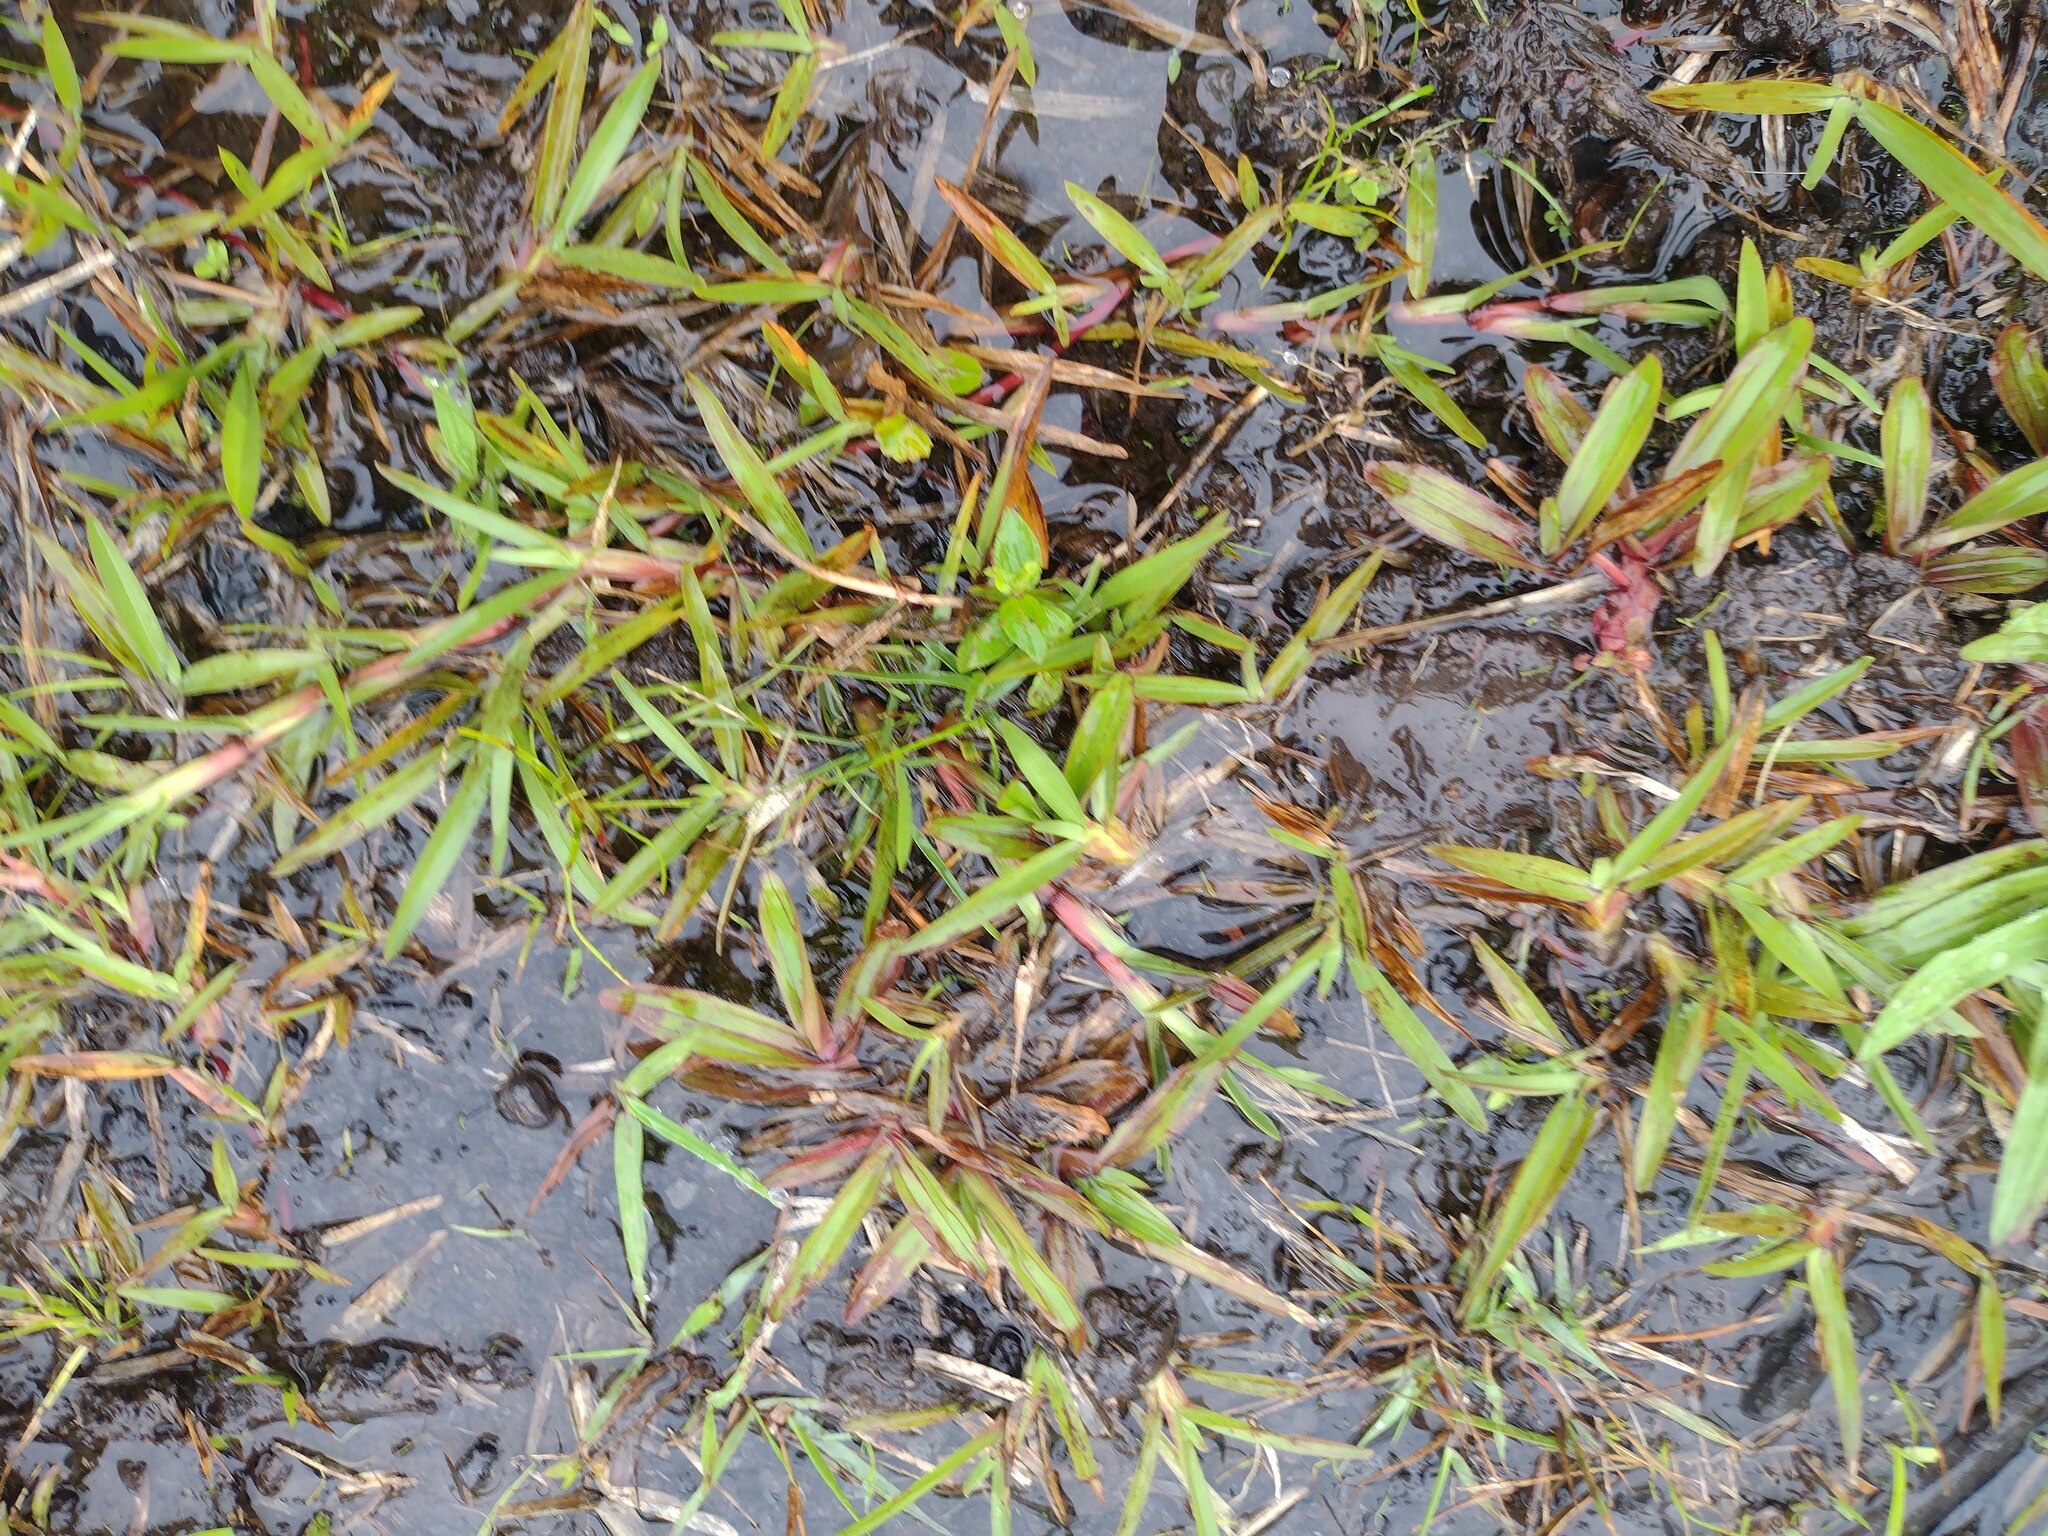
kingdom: Plantae
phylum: Tracheophyta
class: Liliopsida
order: Poales
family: Poaceae
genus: Axonopus
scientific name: Axonopus fissifolius
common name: Common carpetgrass
